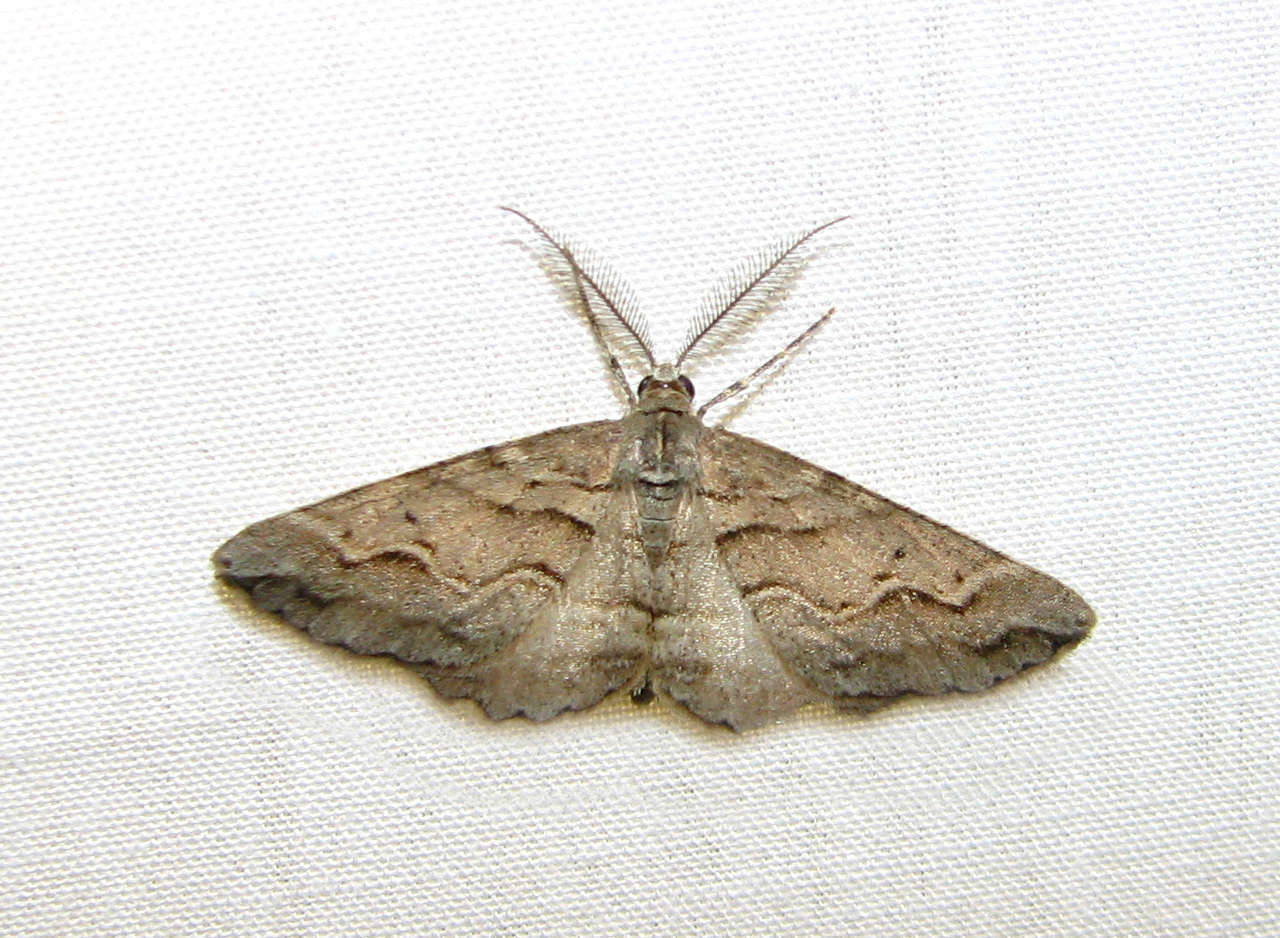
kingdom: Animalia
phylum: Arthropoda
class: Insecta
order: Lepidoptera
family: Geometridae
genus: Syneora
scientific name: Syneora fractata
